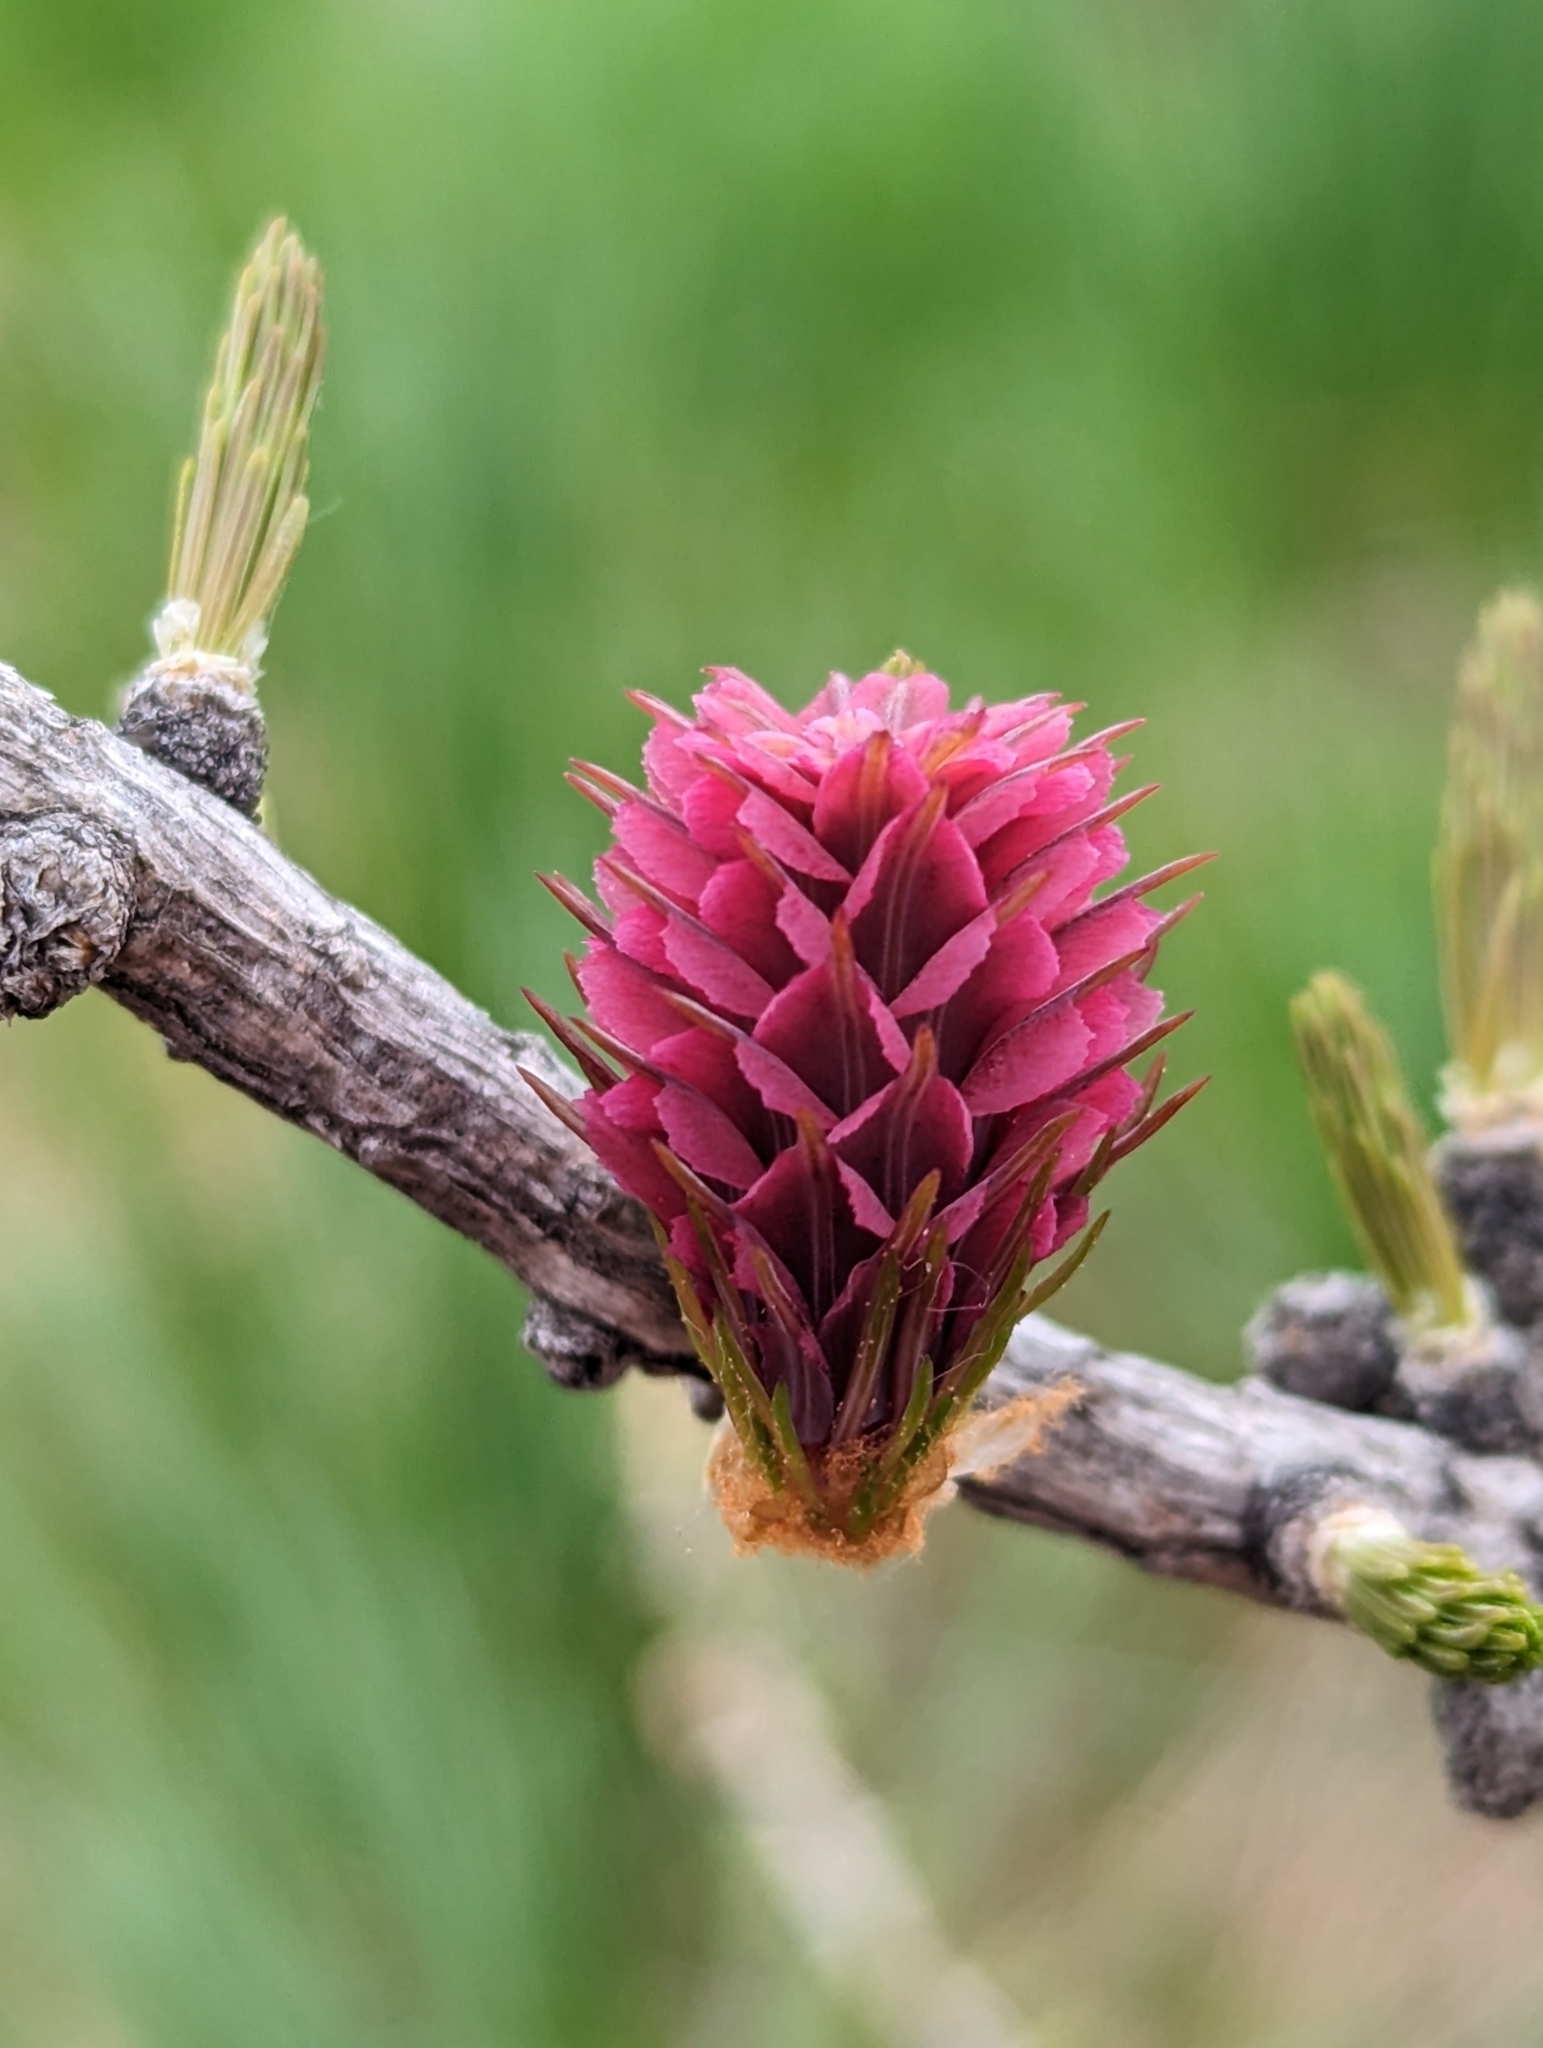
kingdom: Plantae
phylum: Tracheophyta
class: Pinopsida
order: Pinales
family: Pinaceae
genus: Larix
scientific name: Larix decidua
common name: European larch
